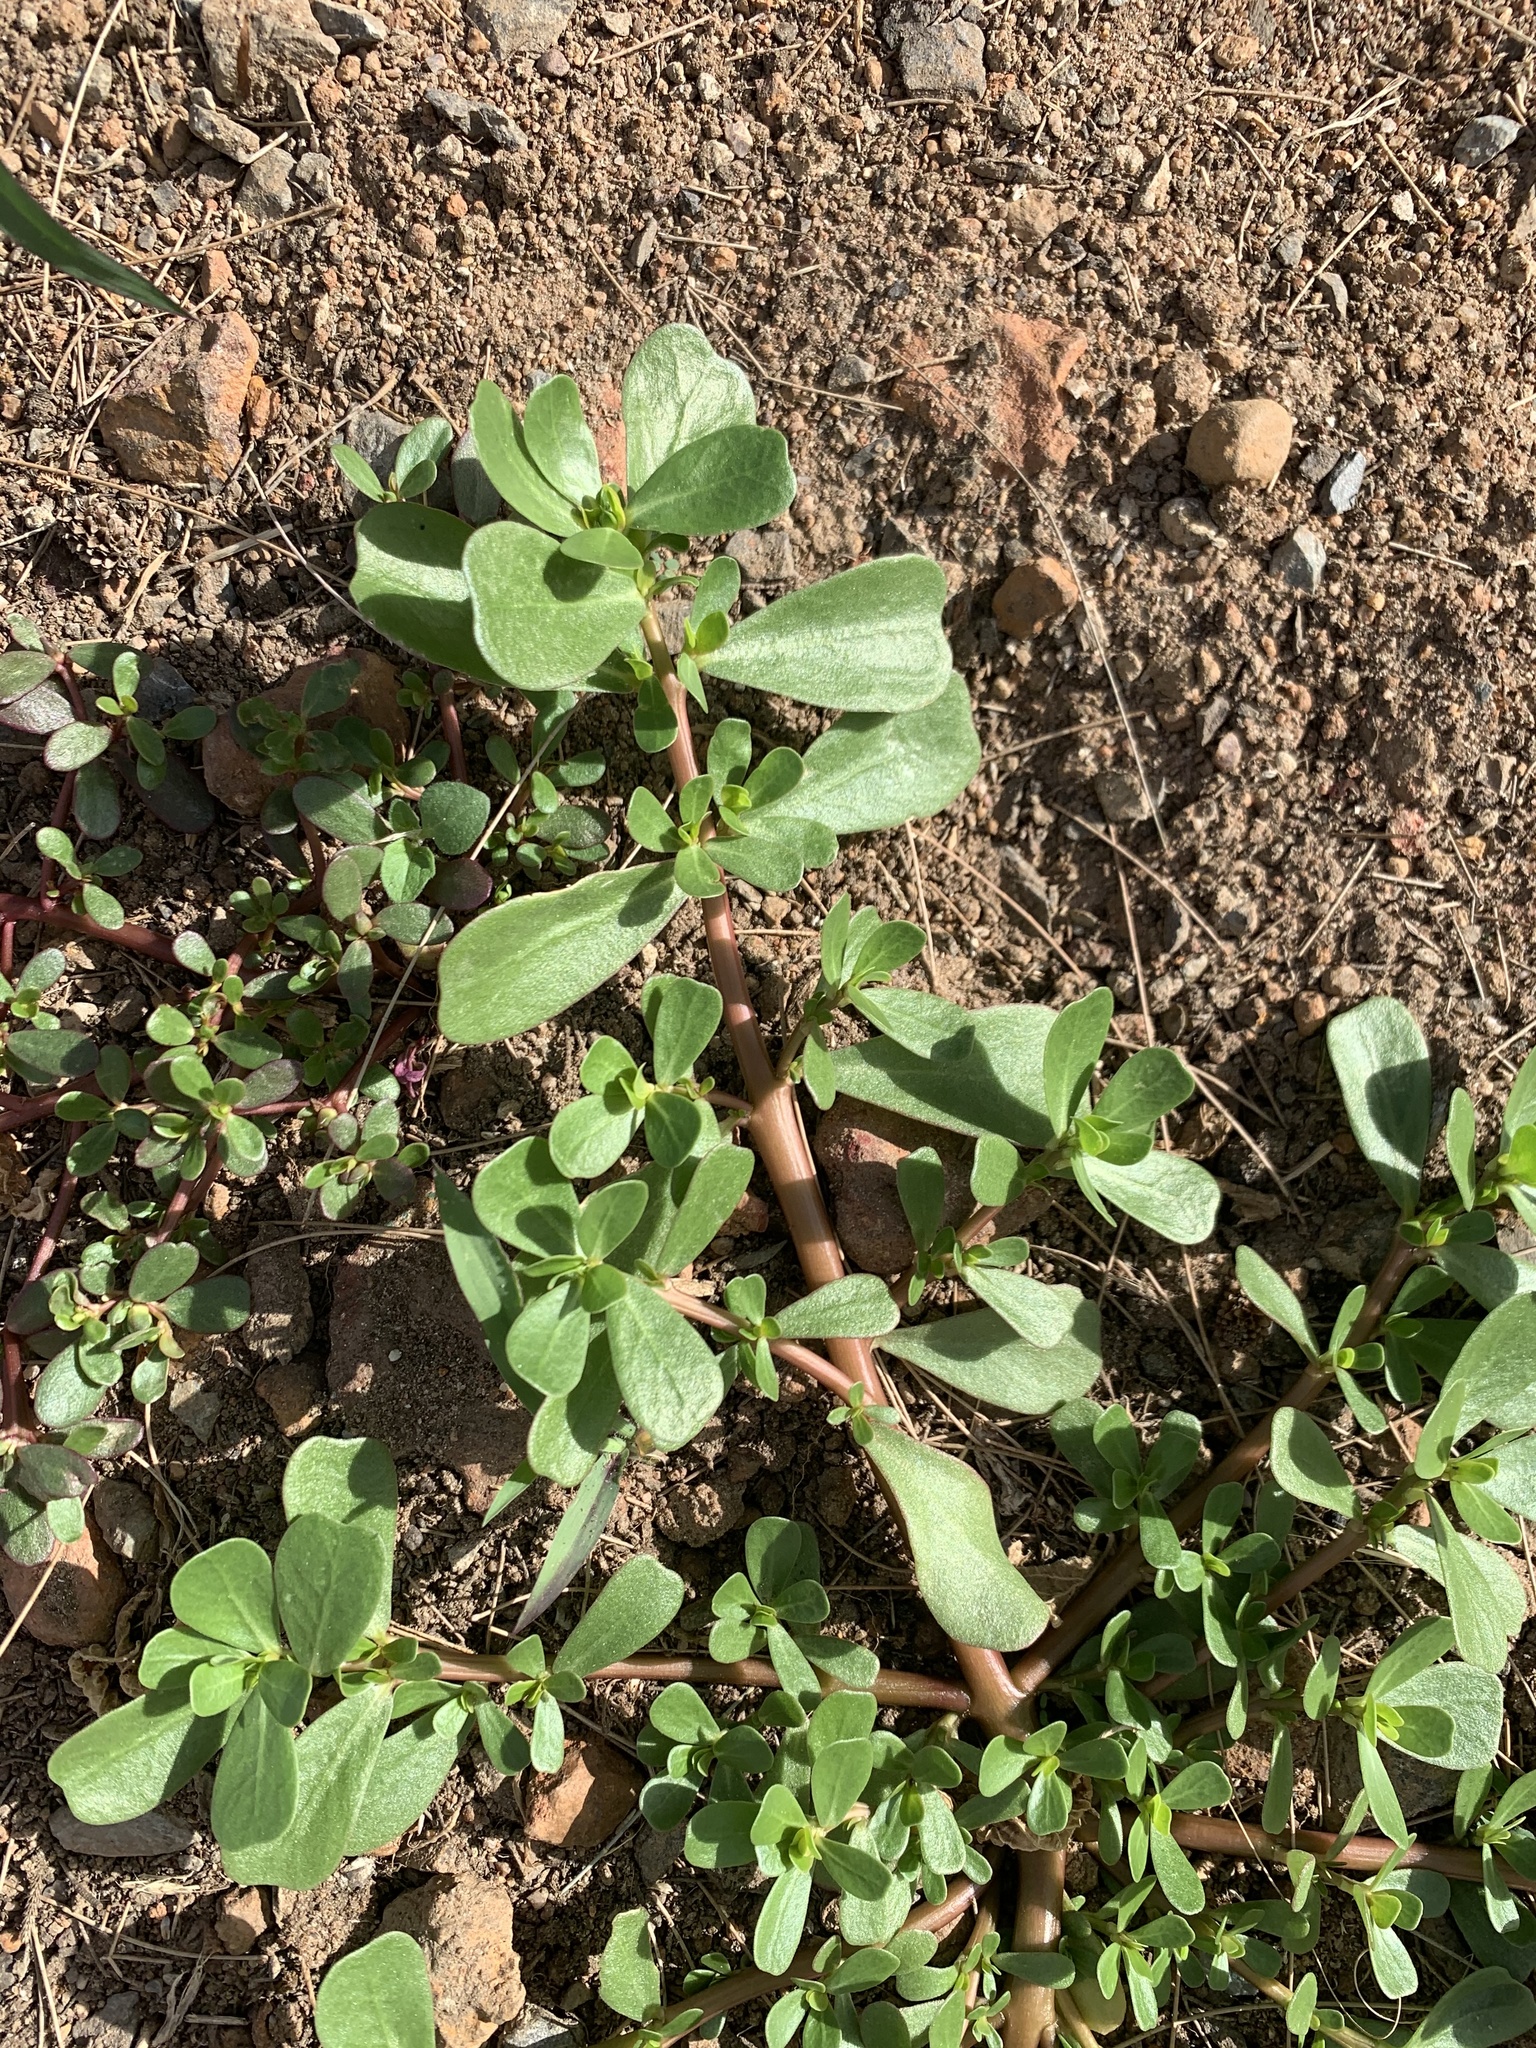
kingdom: Plantae
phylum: Tracheophyta
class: Magnoliopsida
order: Caryophyllales
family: Portulacaceae
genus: Portulaca
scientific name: Portulaca oleracea
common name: Common purslane
